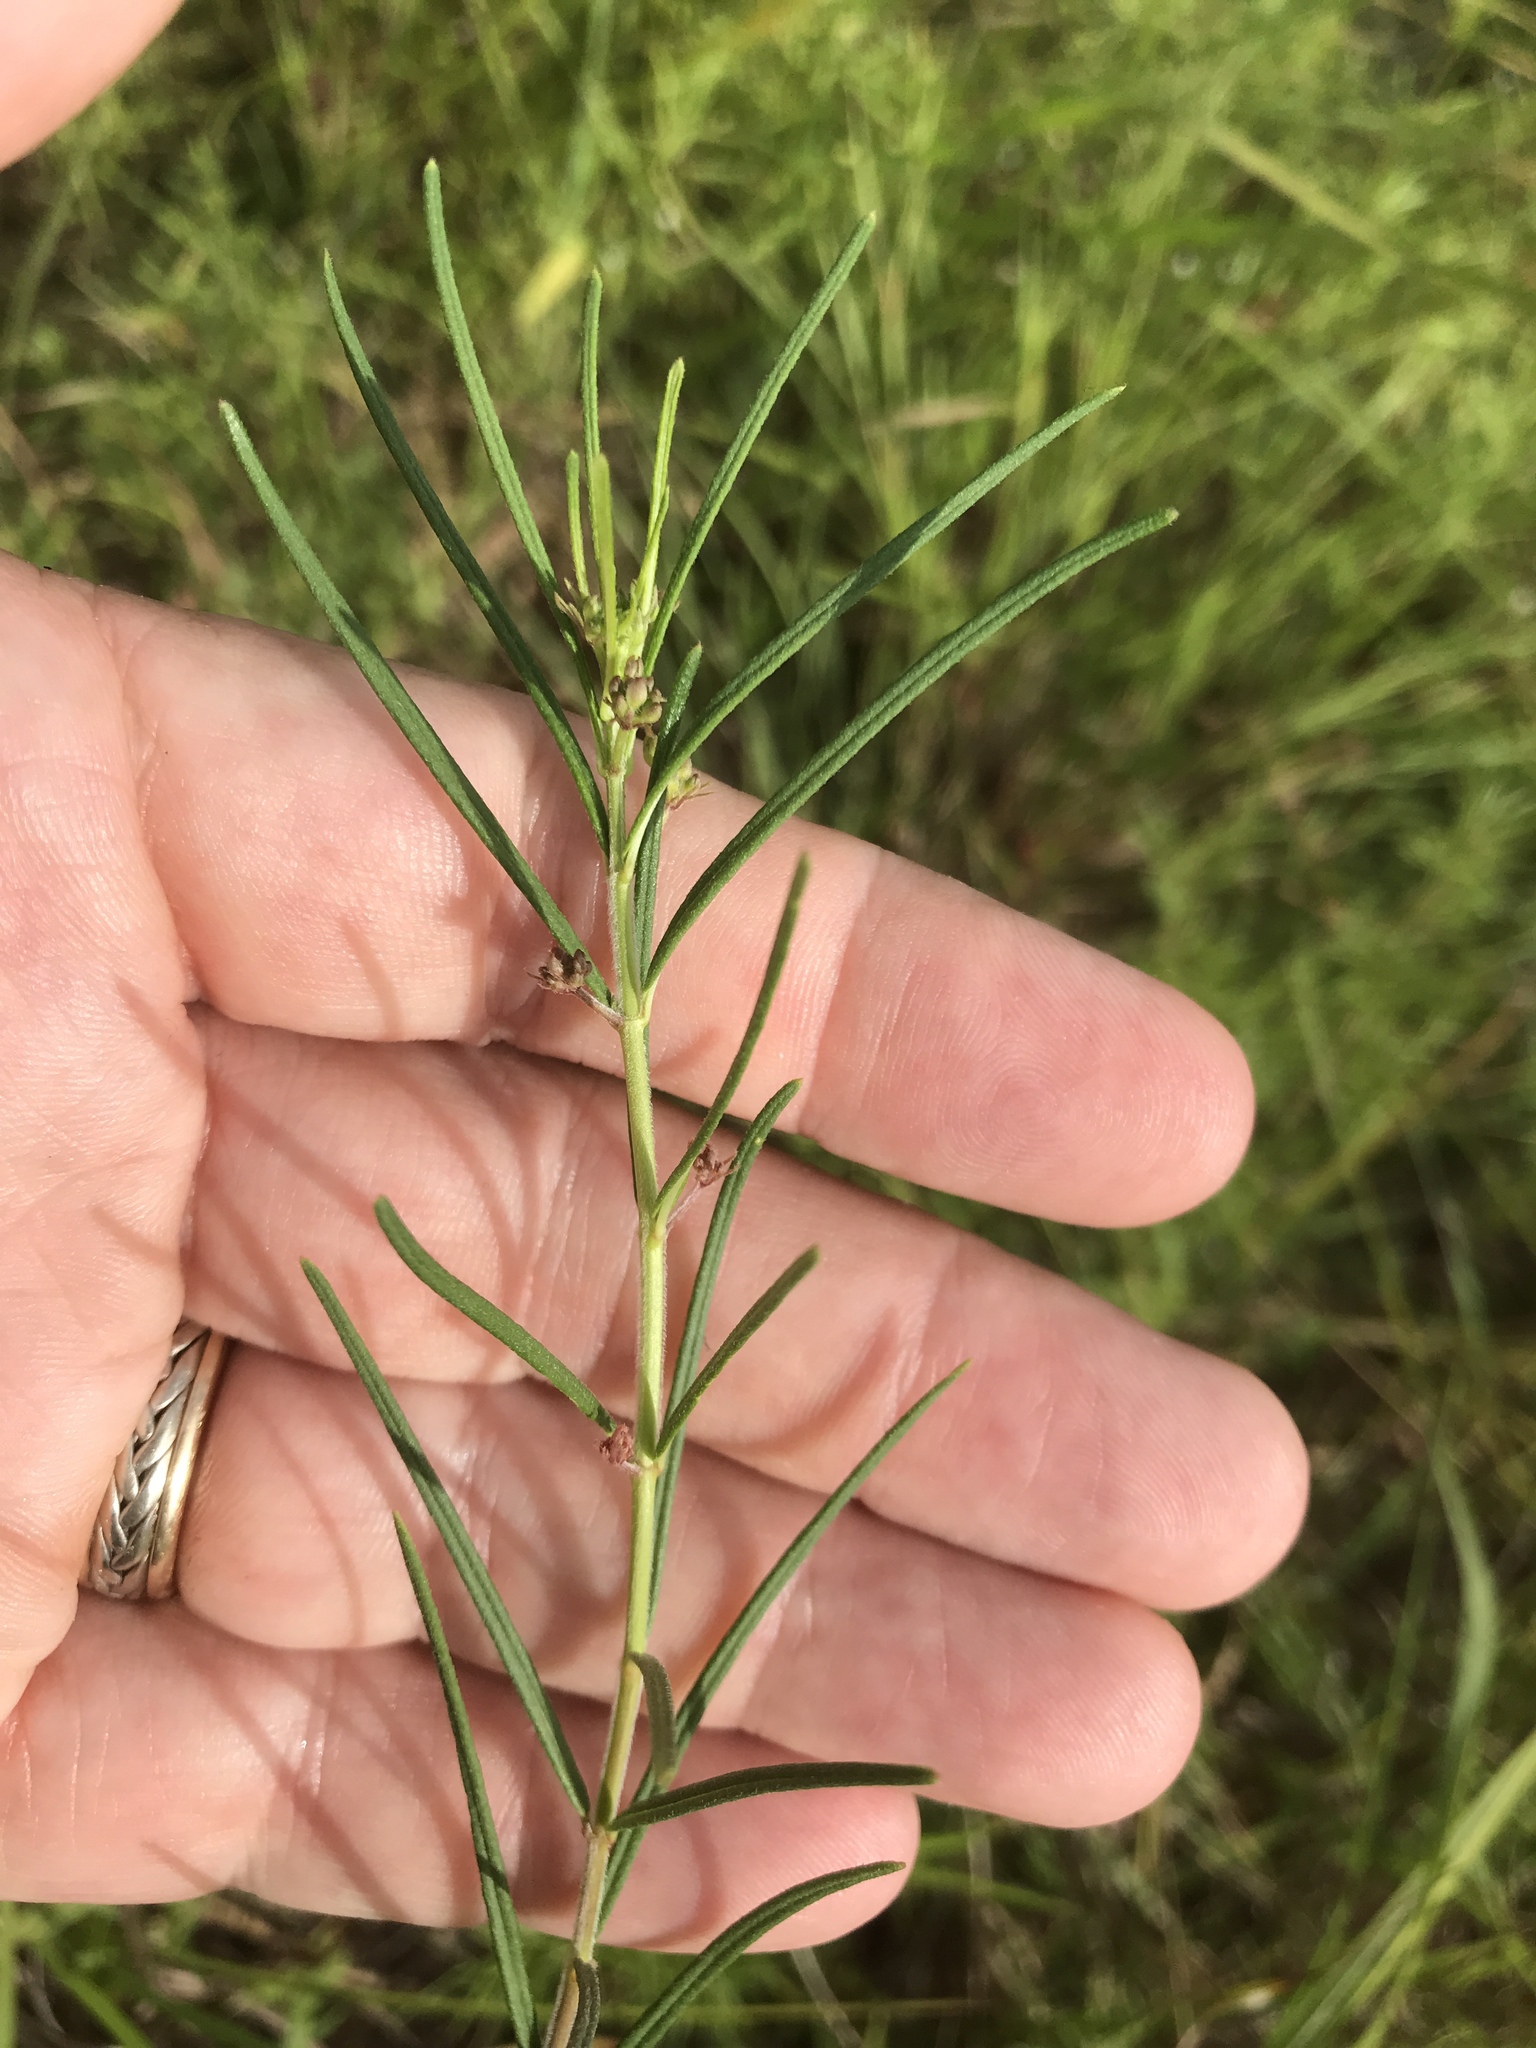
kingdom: Plantae
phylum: Tracheophyta
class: Magnoliopsida
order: Gentianales
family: Apocynaceae
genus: Asclepias
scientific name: Asclepias verticillata
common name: Eastern whorled milkweed
